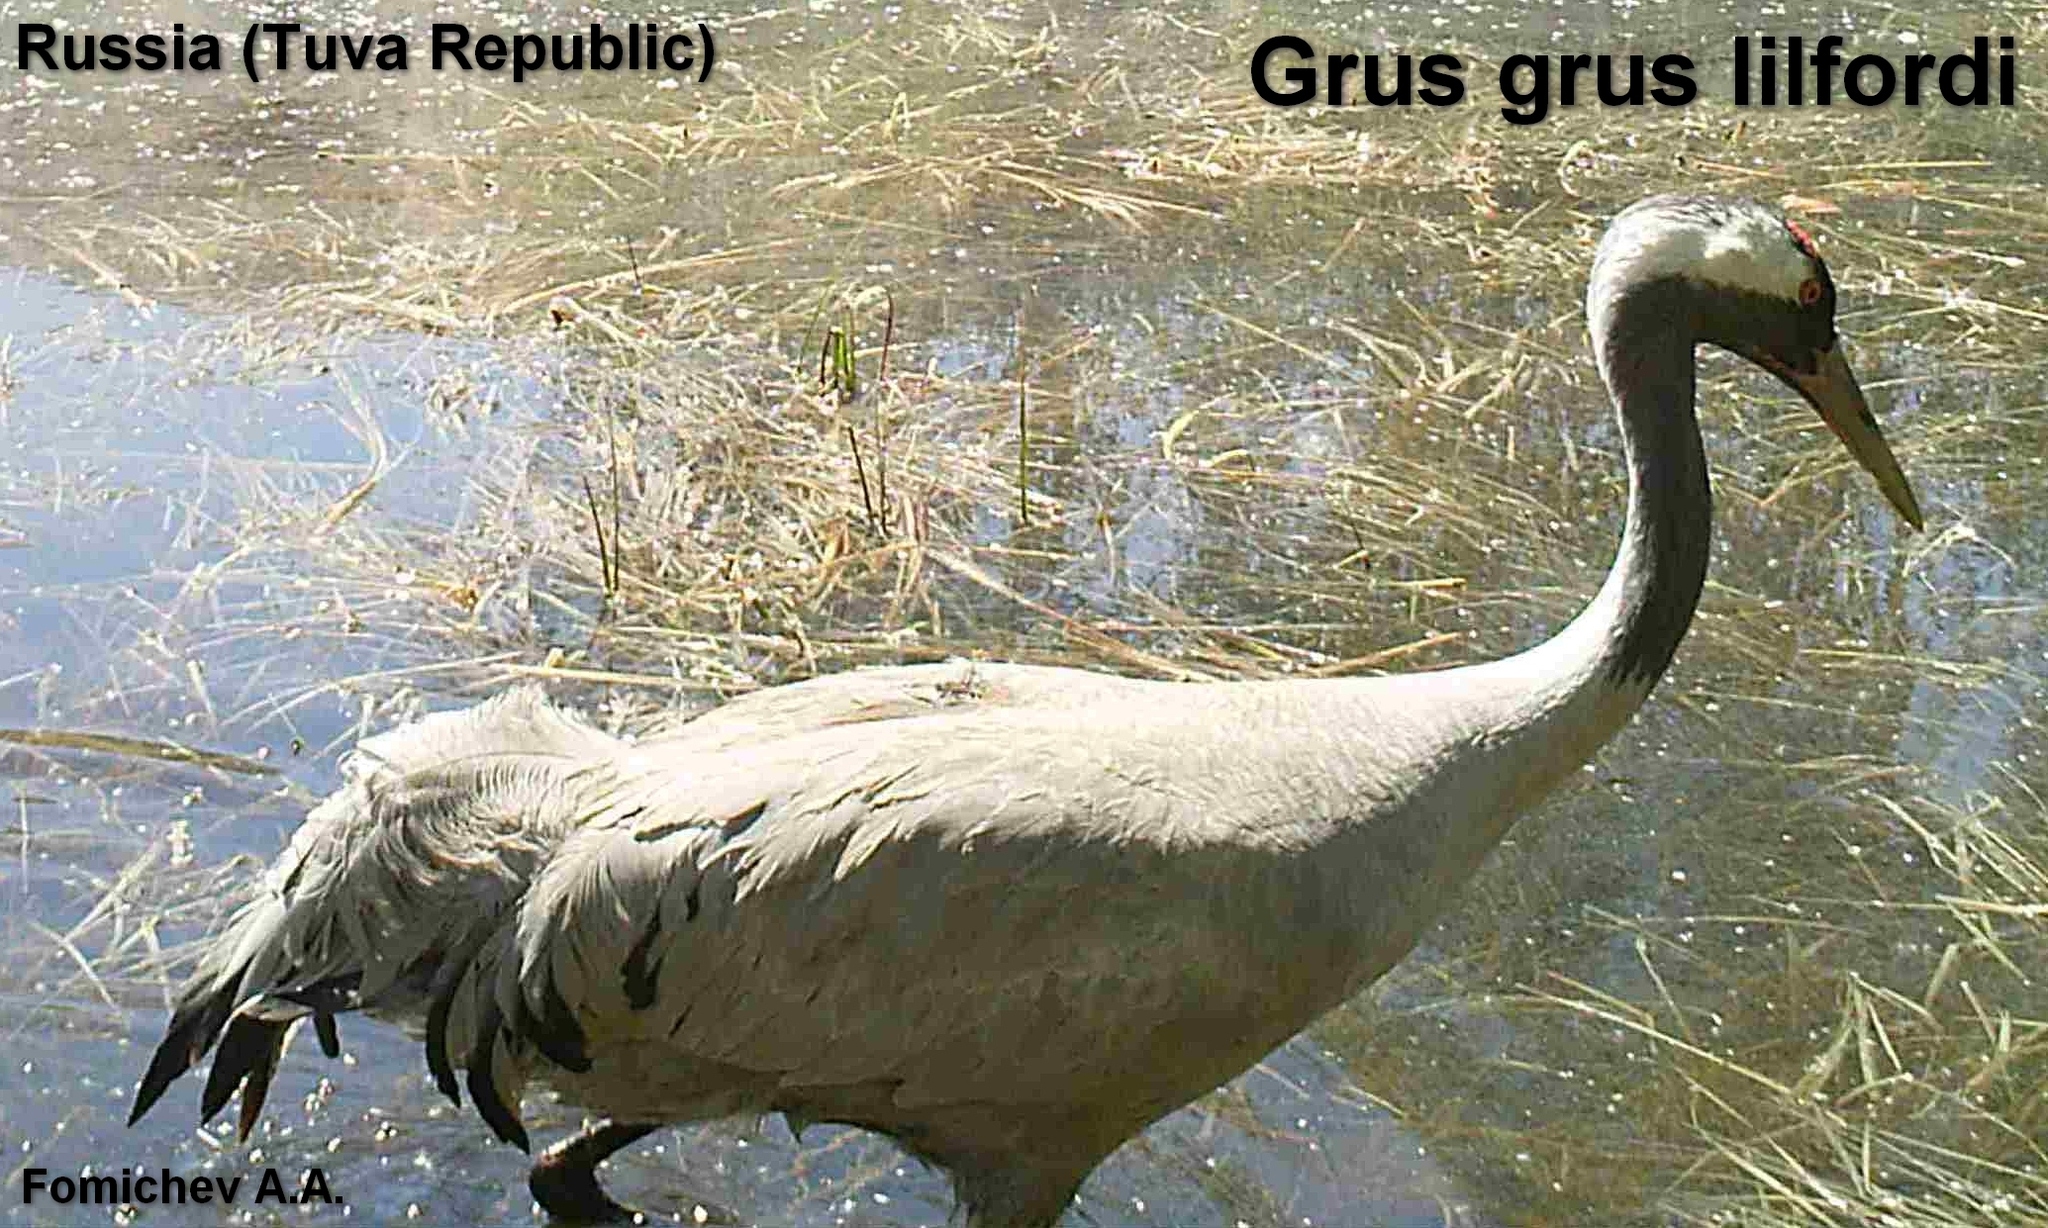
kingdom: Animalia
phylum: Chordata
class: Aves
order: Gruiformes
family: Gruidae
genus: Grus
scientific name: Grus grus
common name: Common crane
